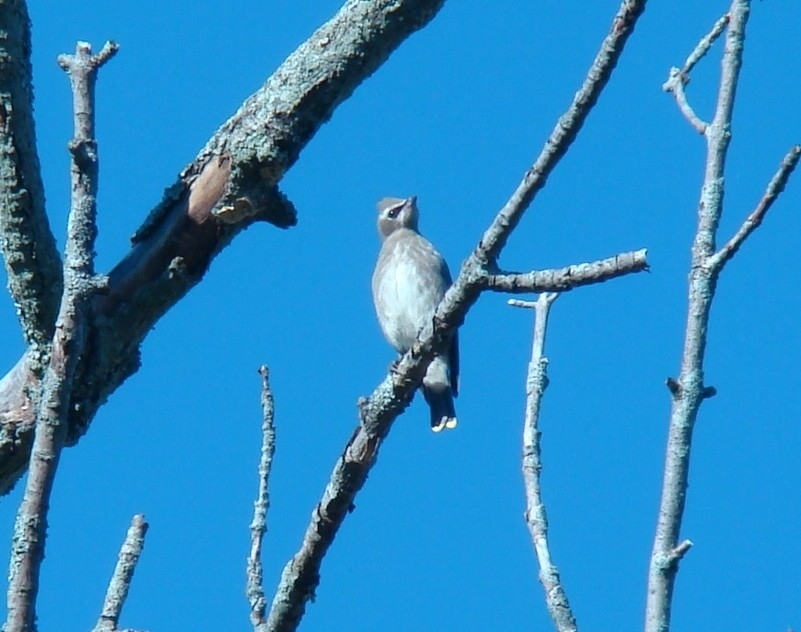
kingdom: Animalia
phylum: Chordata
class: Aves
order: Passeriformes
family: Bombycillidae
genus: Bombycilla
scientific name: Bombycilla cedrorum
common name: Cedar waxwing
